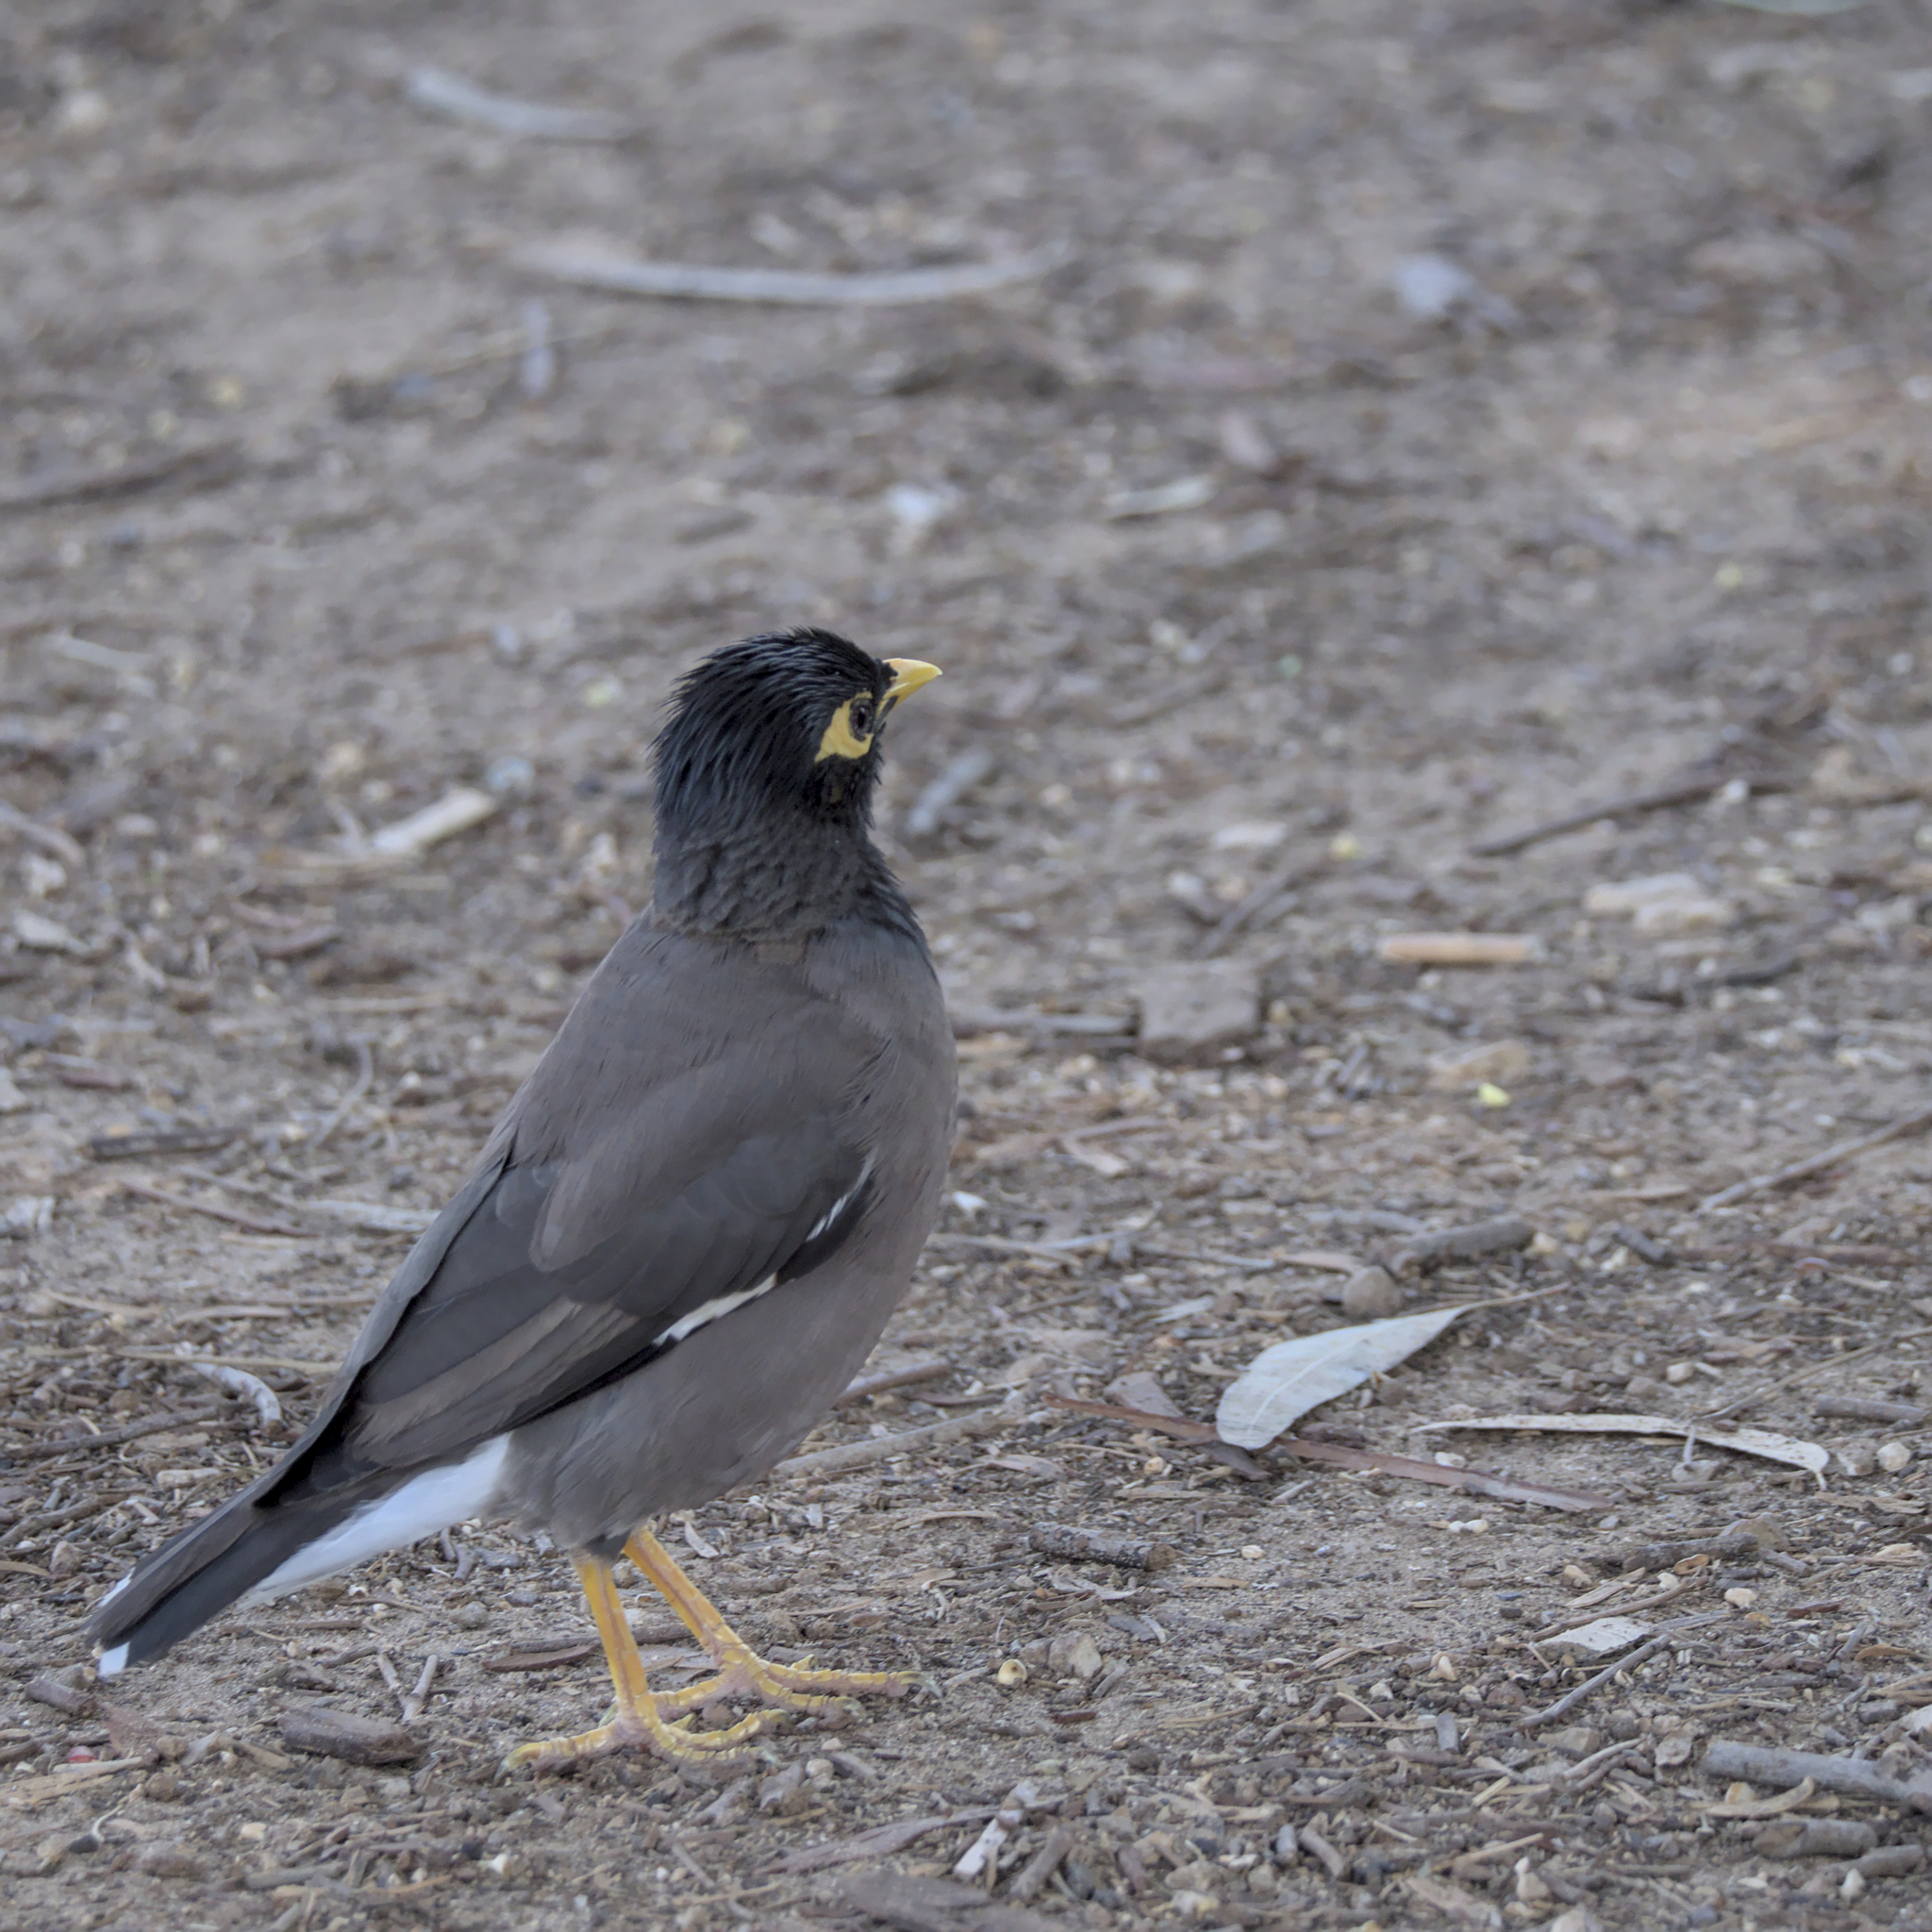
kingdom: Animalia
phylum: Chordata
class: Aves
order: Passeriformes
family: Sturnidae
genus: Acridotheres
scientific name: Acridotheres tristis
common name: Common myna
